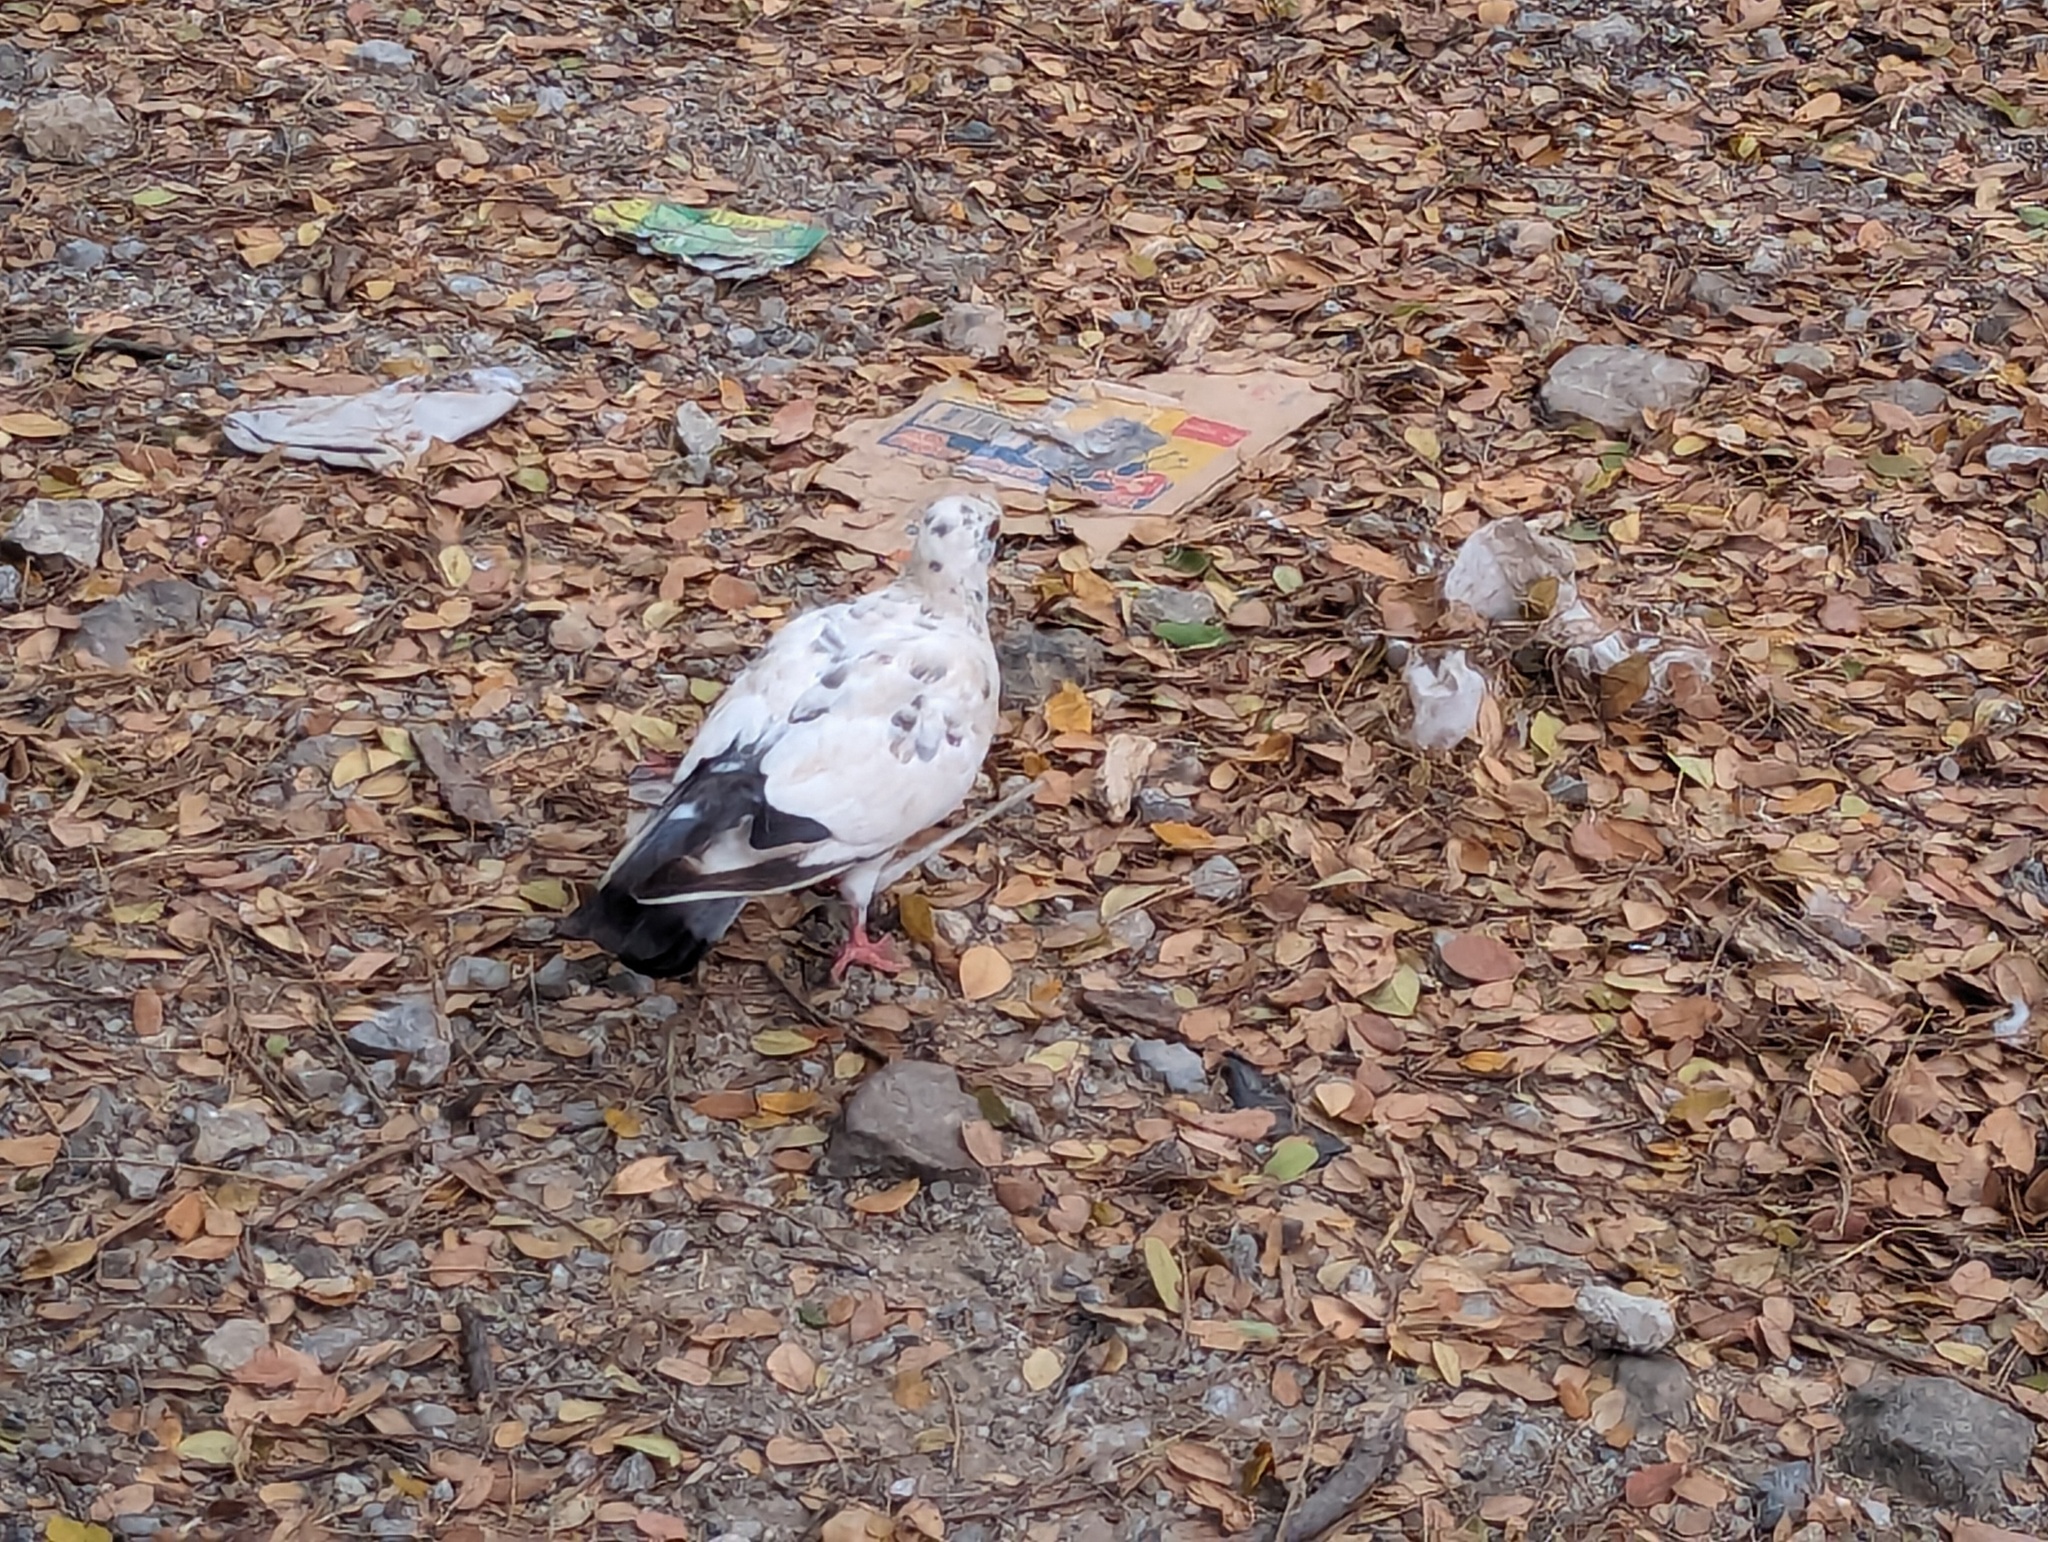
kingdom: Animalia
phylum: Chordata
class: Aves
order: Columbiformes
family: Columbidae
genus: Columba
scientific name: Columba livia
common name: Rock pigeon
